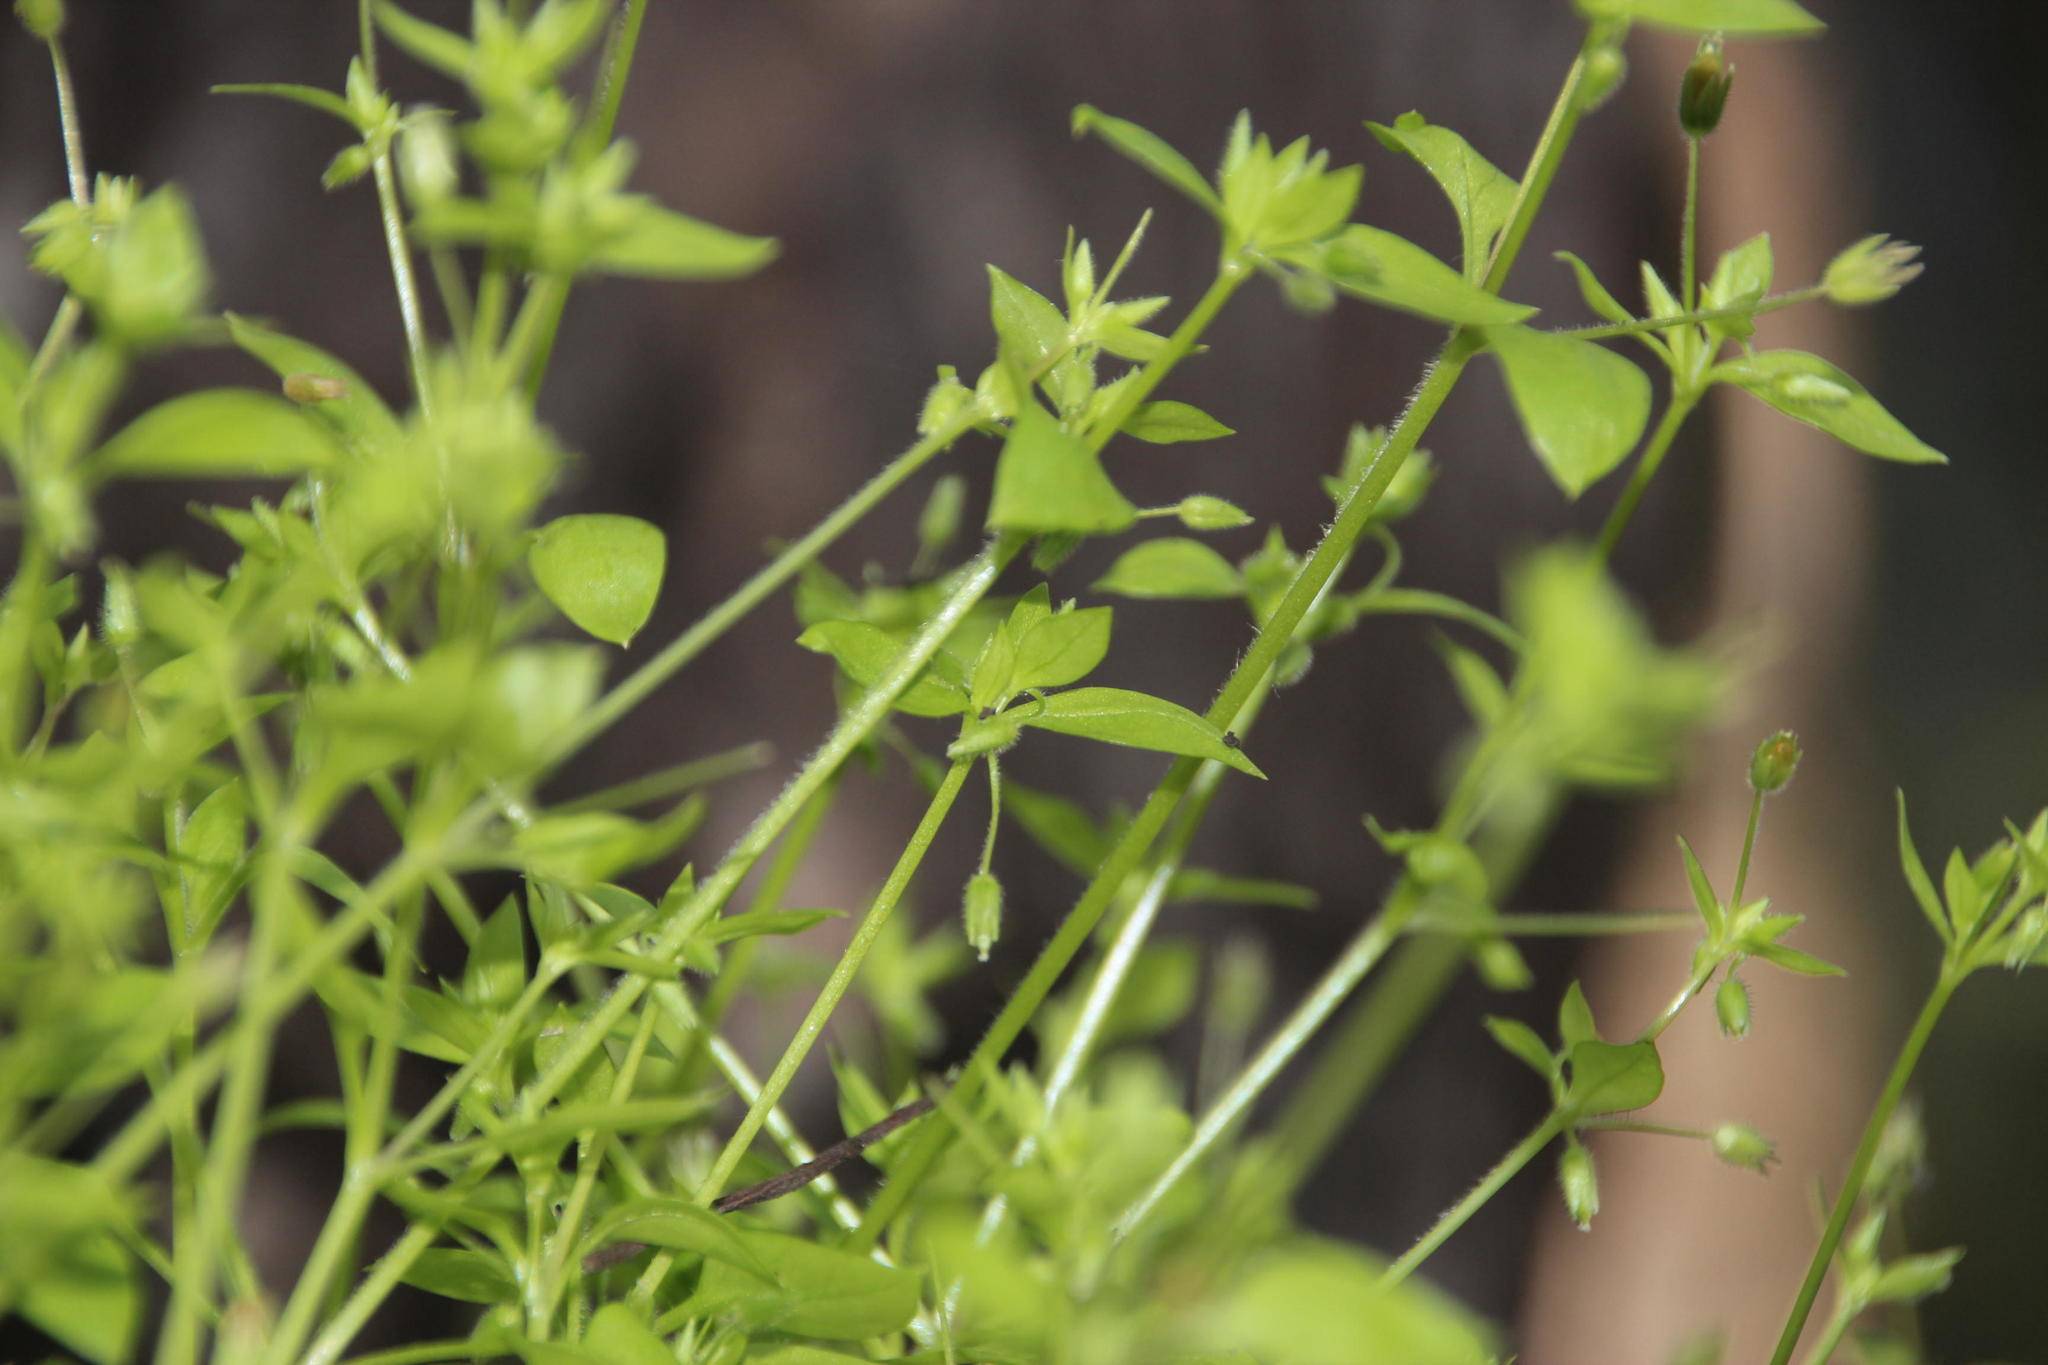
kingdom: Plantae
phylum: Tracheophyta
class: Magnoliopsida
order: Caryophyllales
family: Caryophyllaceae
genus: Stellaria
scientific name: Stellaria media
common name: Common chickweed
